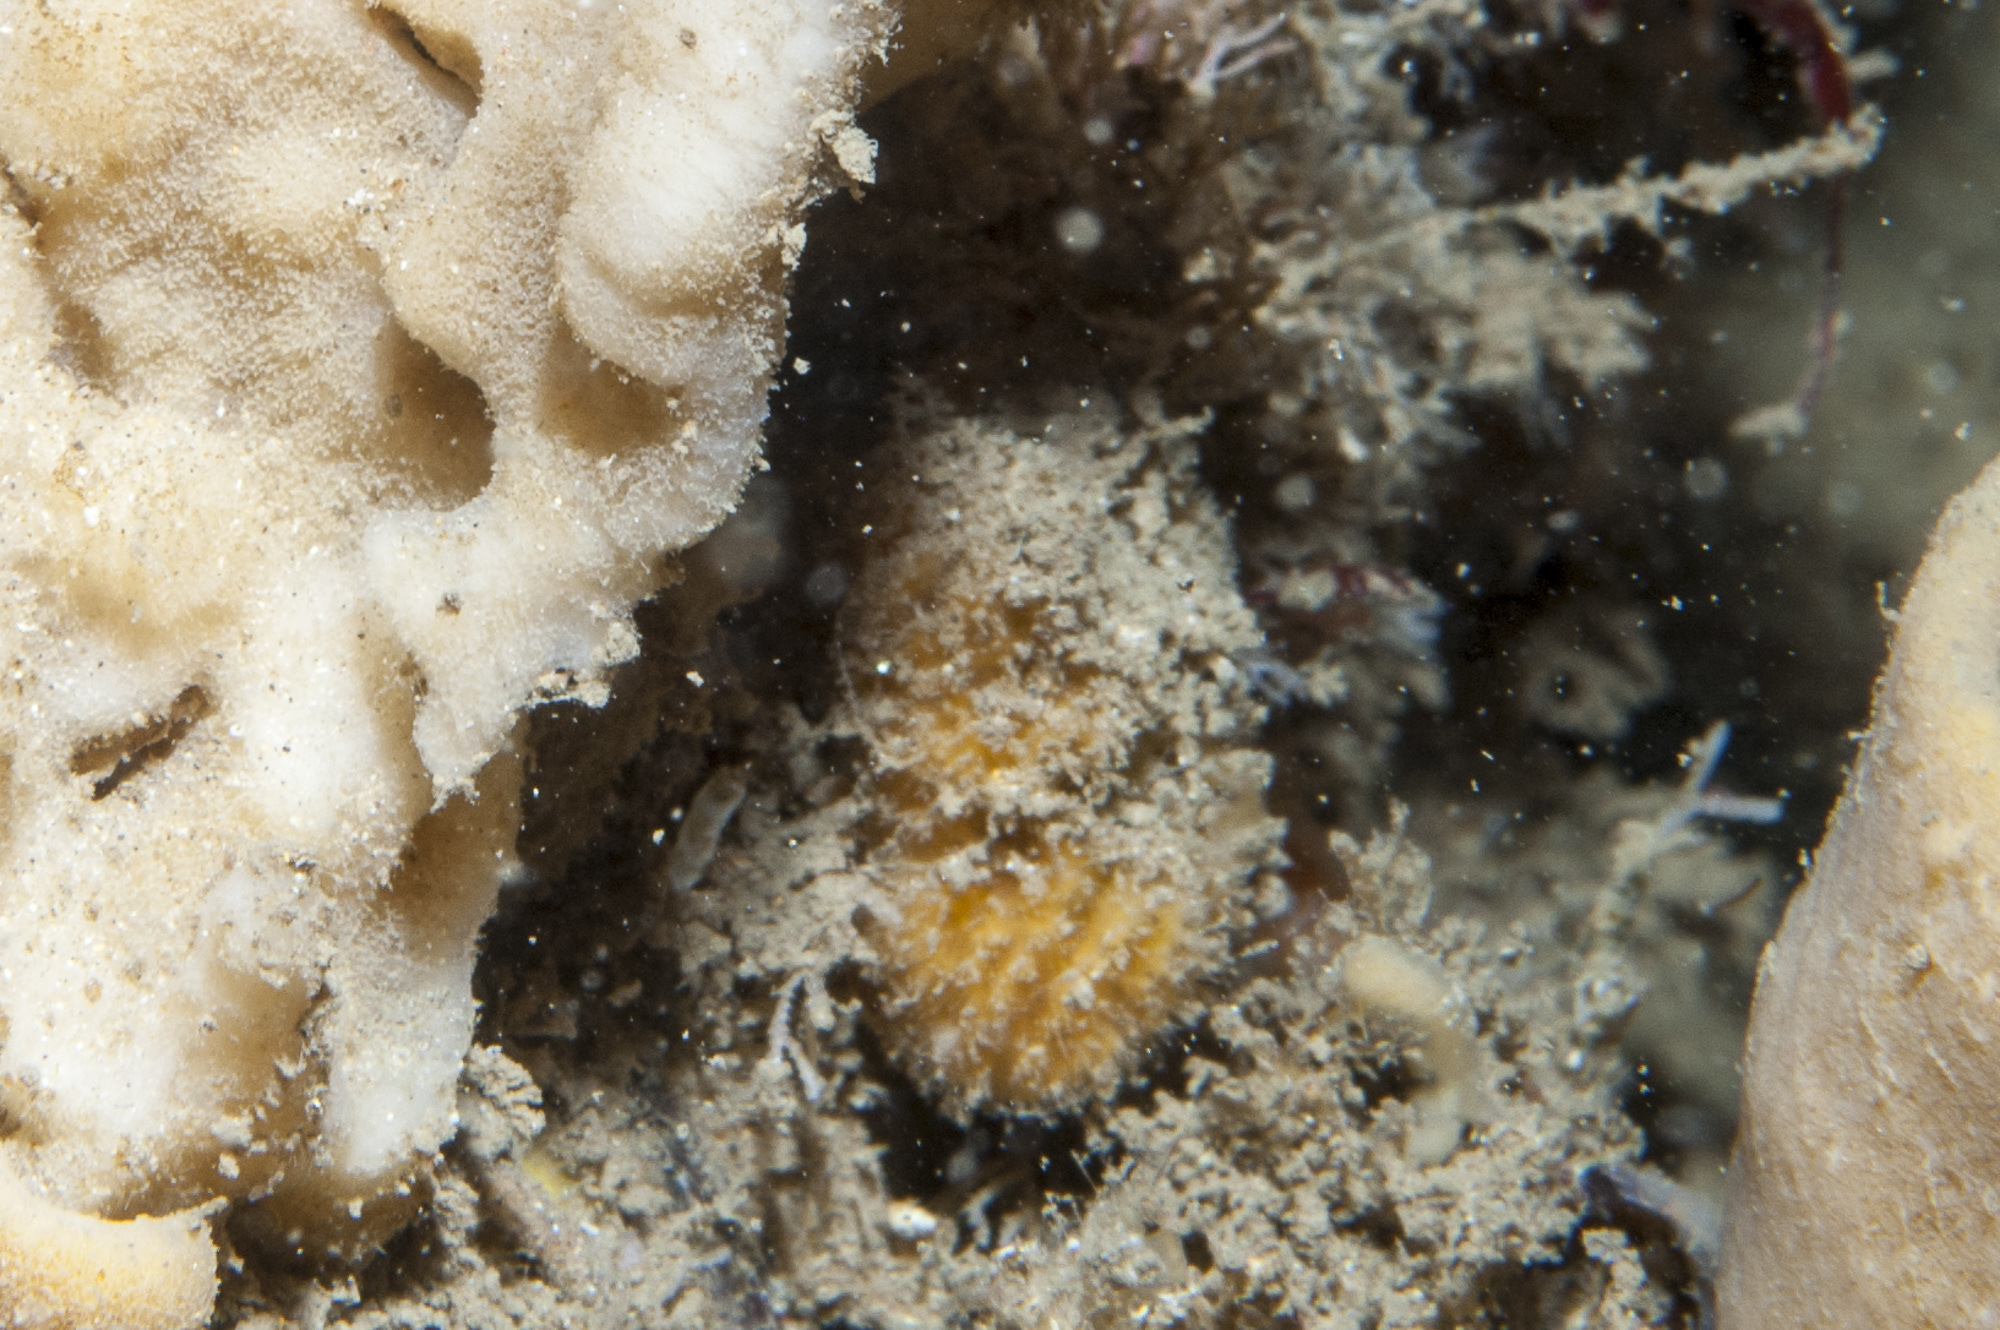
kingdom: Animalia
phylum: Porifera
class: Demospongiae
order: Axinellida
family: Axinellidae
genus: Axinella
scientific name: Axinella parva
